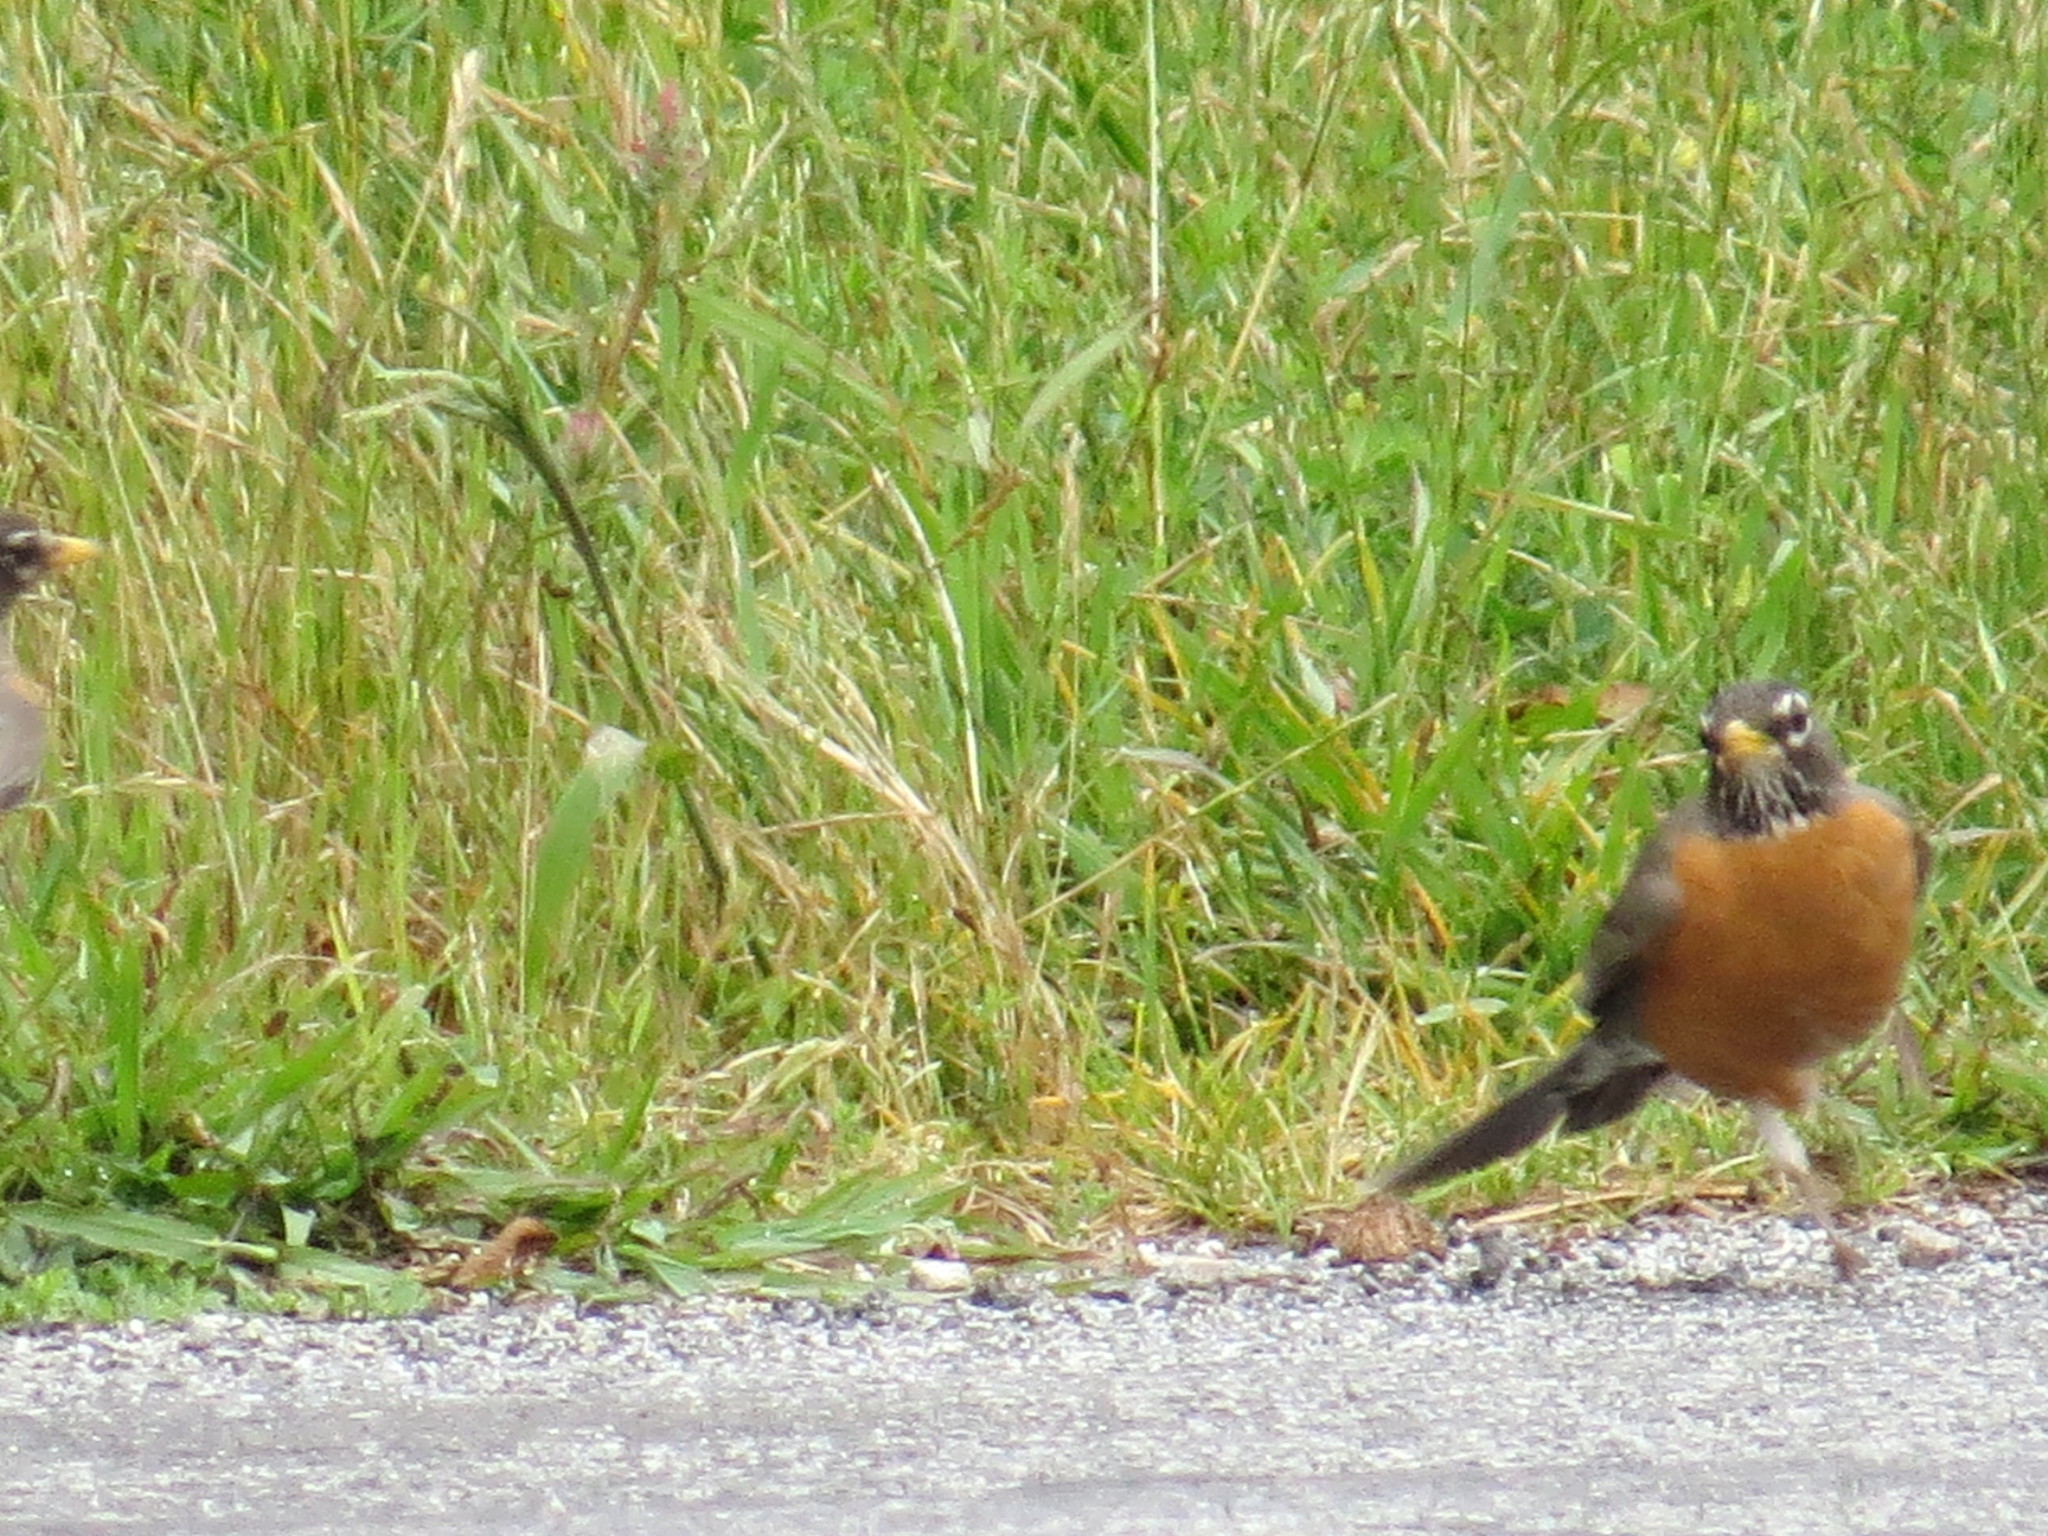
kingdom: Animalia
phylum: Chordata
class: Aves
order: Passeriformes
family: Turdidae
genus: Turdus
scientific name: Turdus migratorius
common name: American robin
